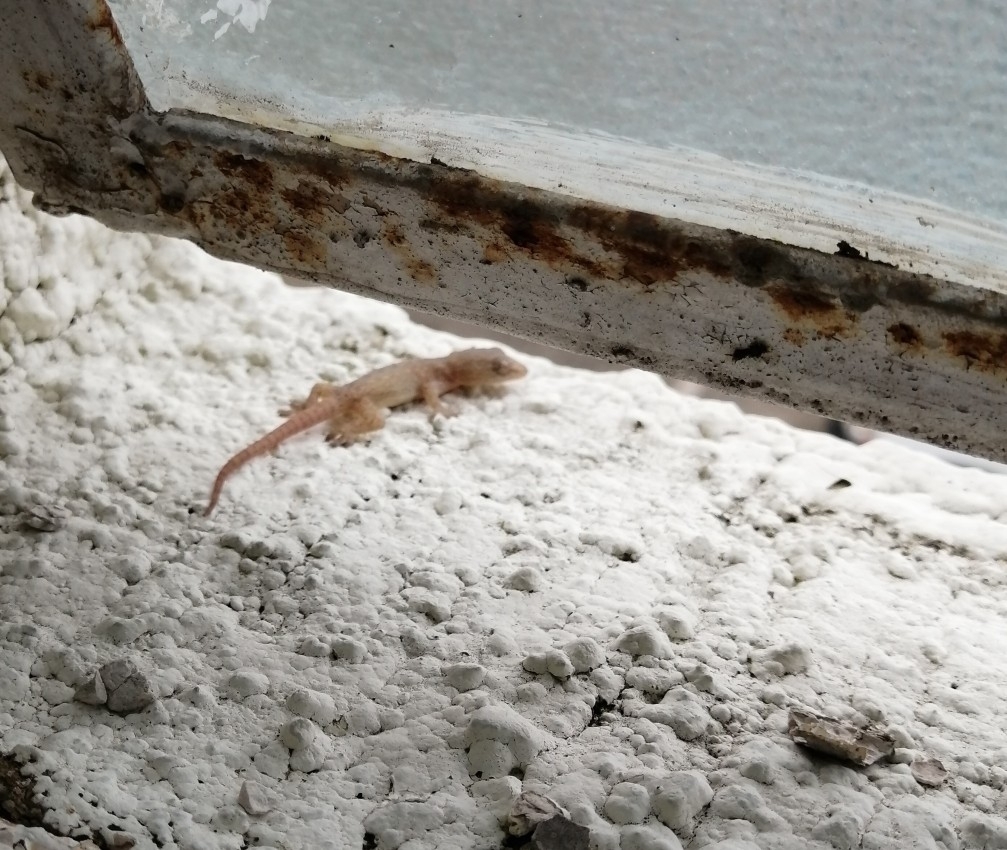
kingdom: Animalia
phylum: Chordata
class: Squamata
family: Gekkonidae
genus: Hemidactylus
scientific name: Hemidactylus frenatus
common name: Common house gecko
